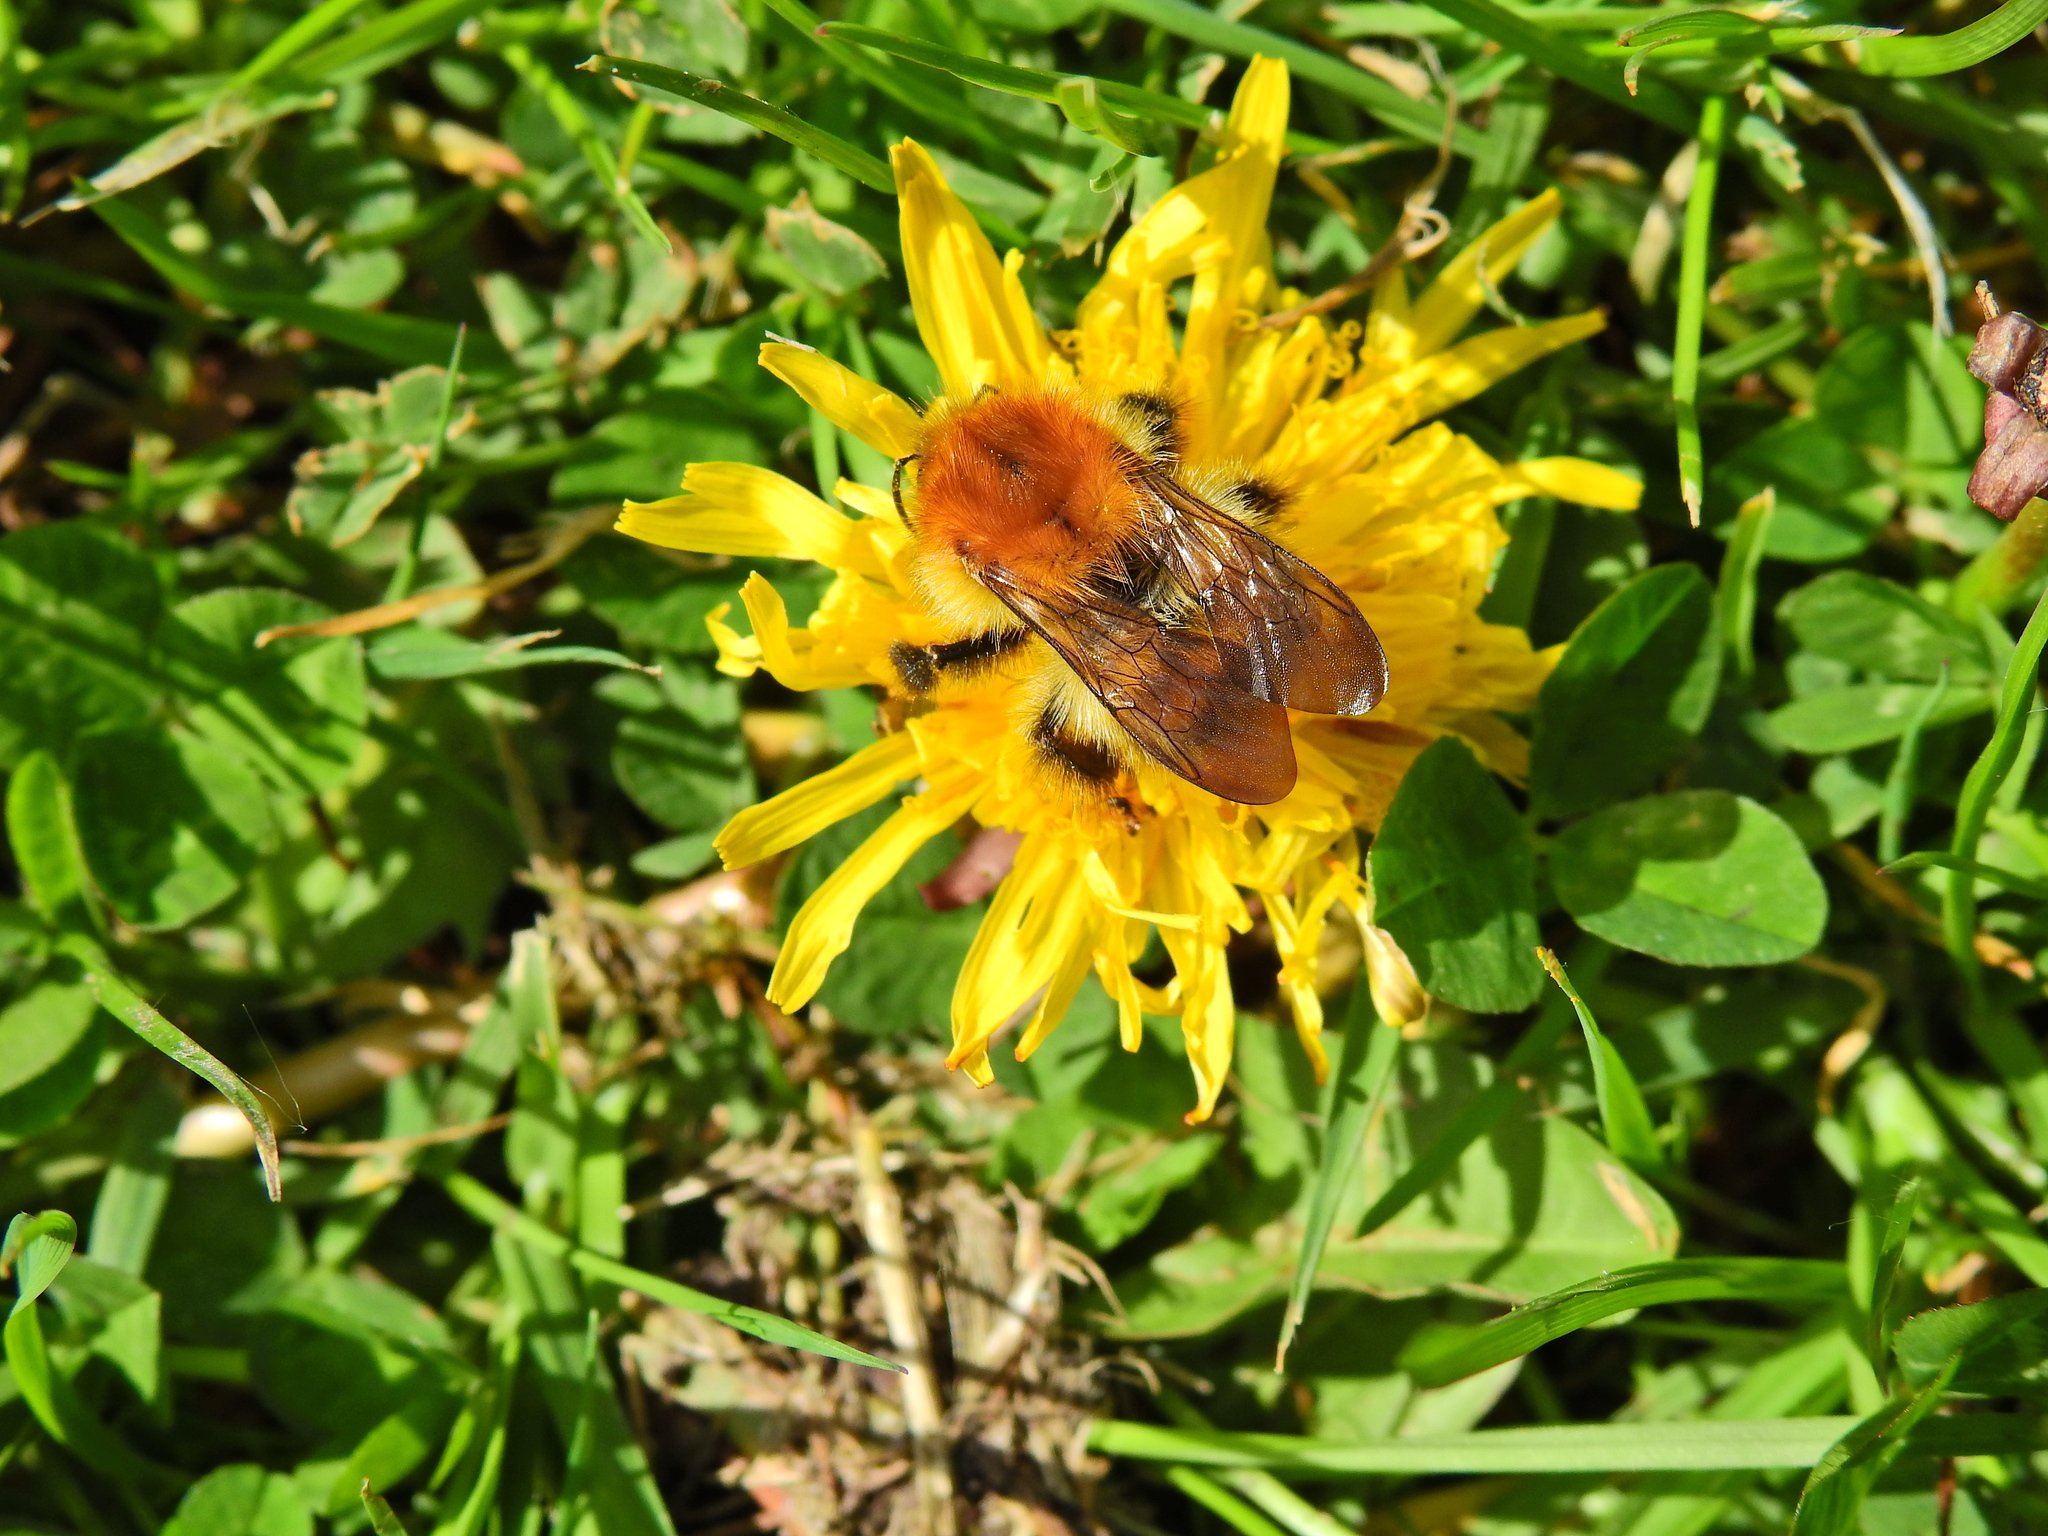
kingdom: Animalia
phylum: Arthropoda
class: Insecta
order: Hymenoptera
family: Apidae
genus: Bombus
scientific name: Bombus pascuorum
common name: Common carder bee
